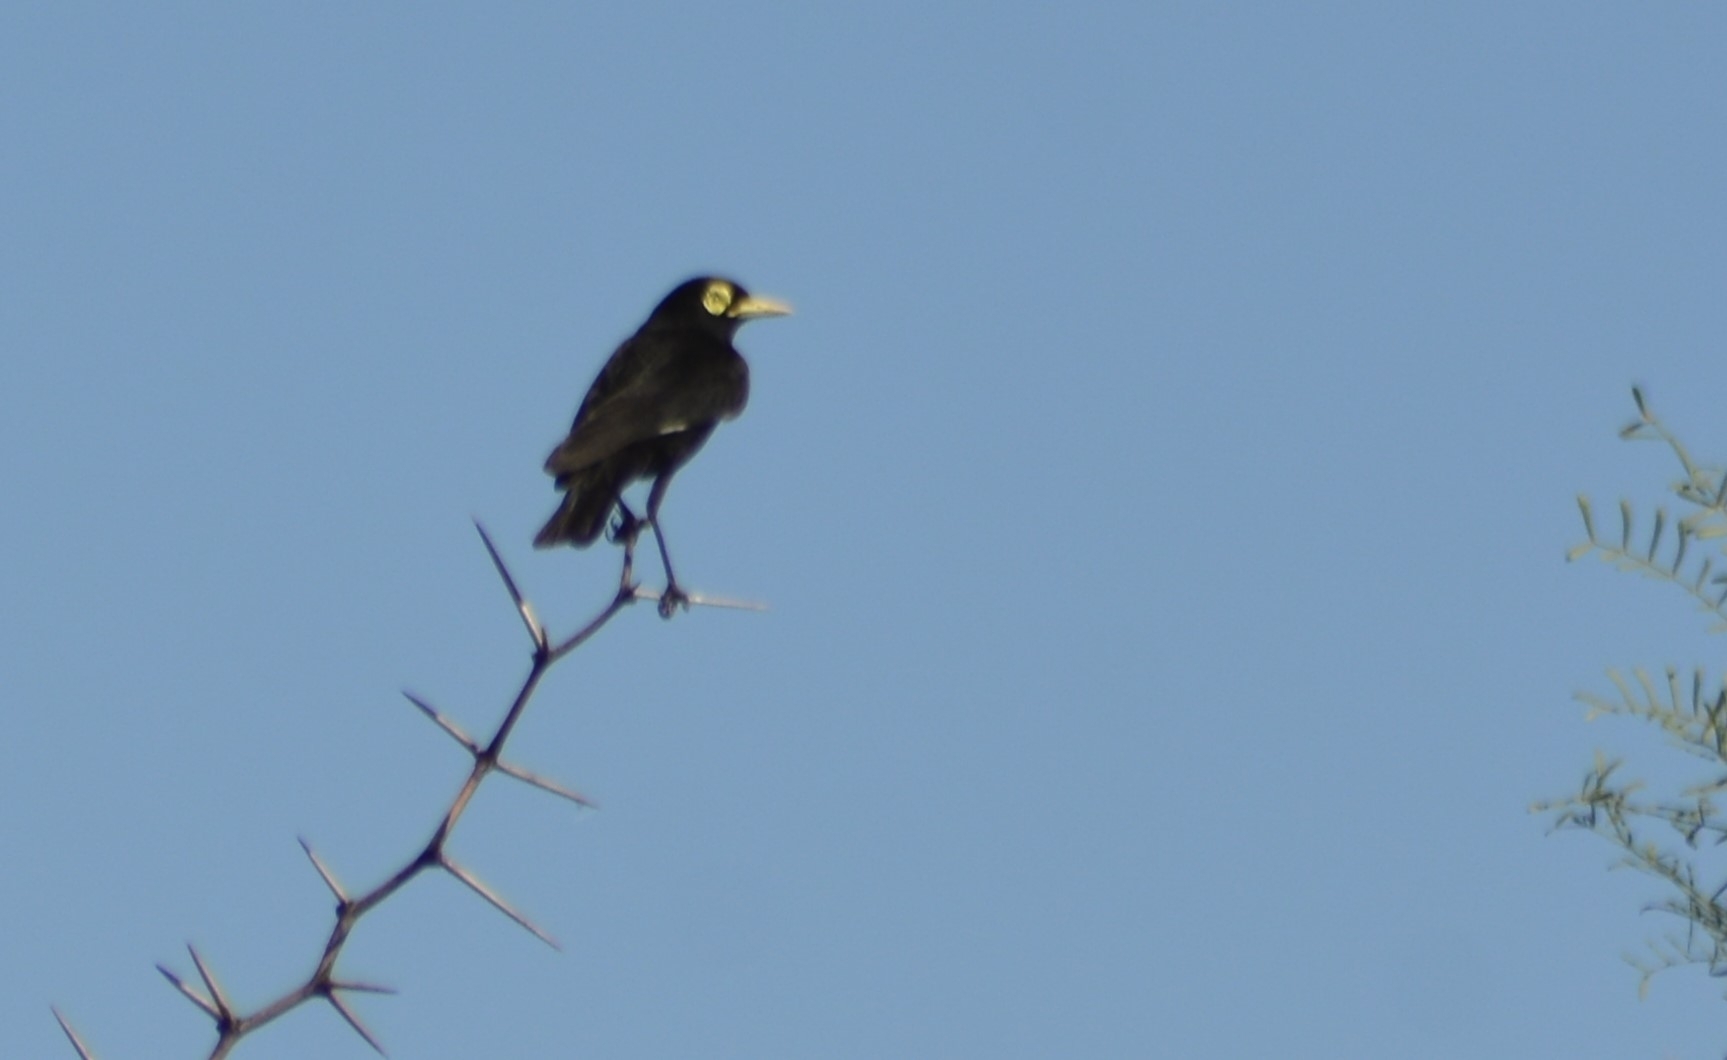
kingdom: Animalia
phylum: Chordata
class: Aves
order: Passeriformes
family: Tyrannidae
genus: Hymenops
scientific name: Hymenops perspicillatus
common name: Spectacled tyrant
